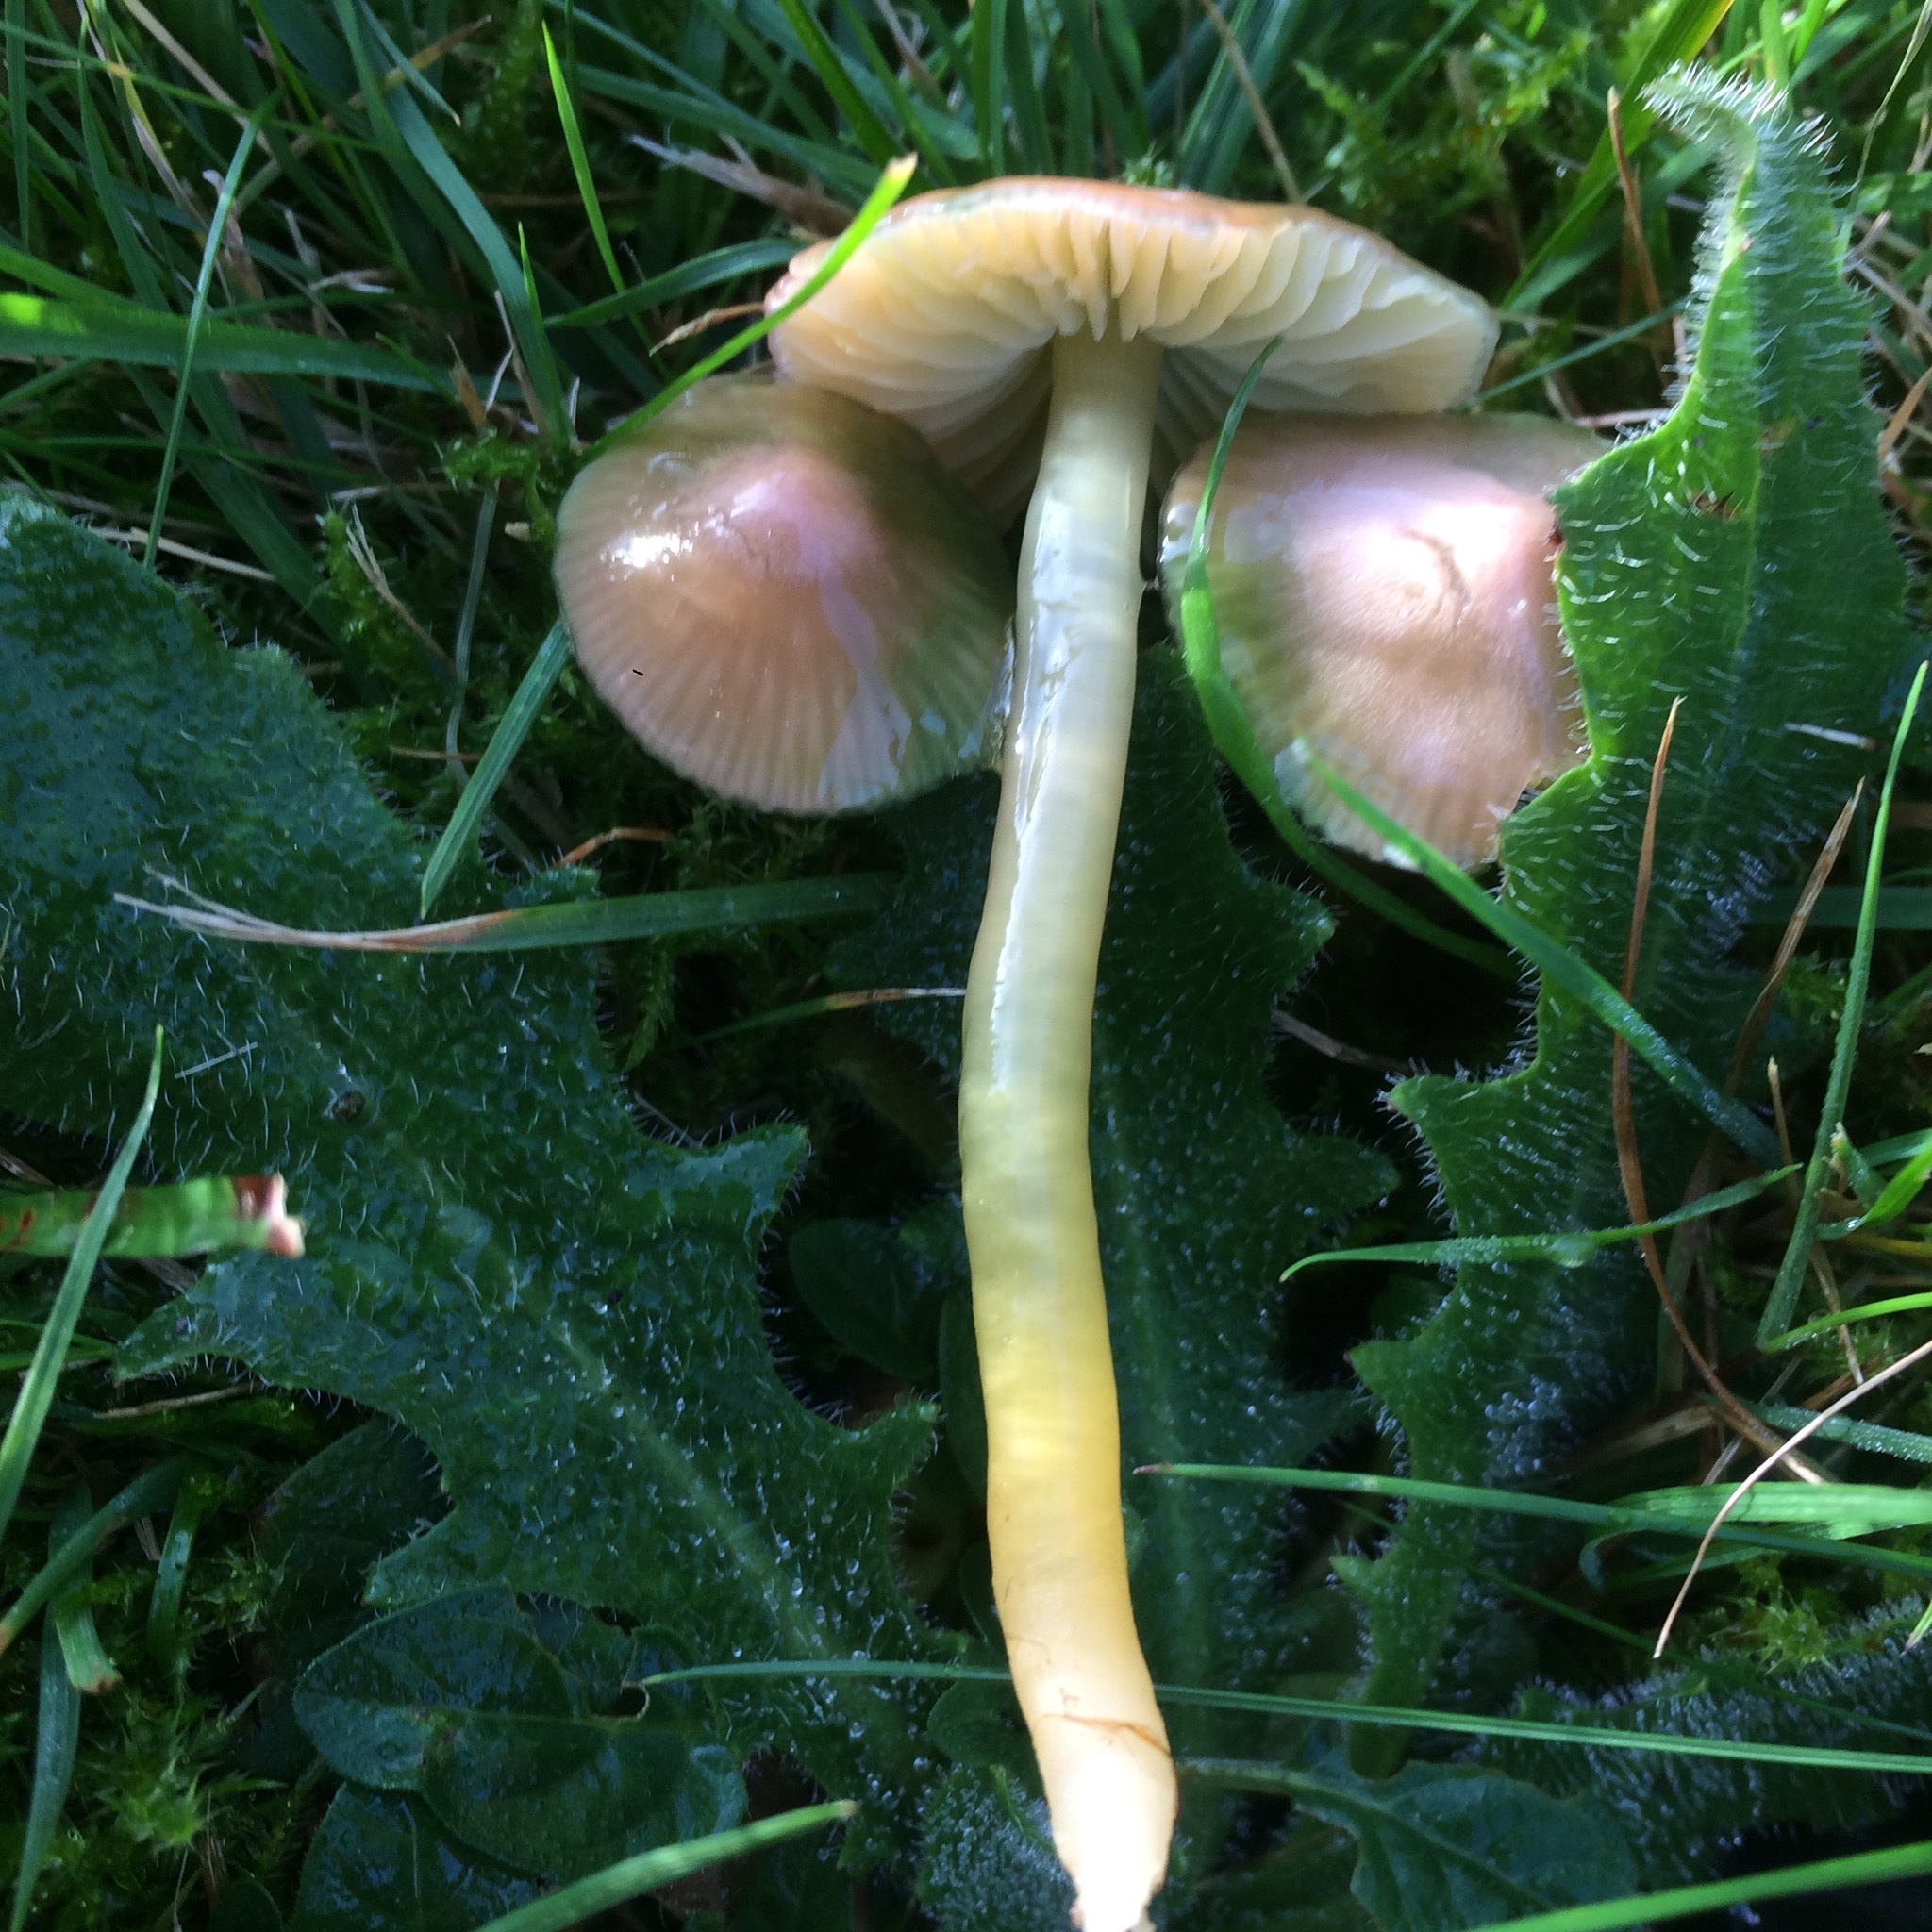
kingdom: Fungi
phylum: Basidiomycota
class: Agaricomycetes
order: Agaricales
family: Hygrophoraceae
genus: Gliophorus
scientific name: Gliophorus psittacinus
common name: Parrot wax-cap
